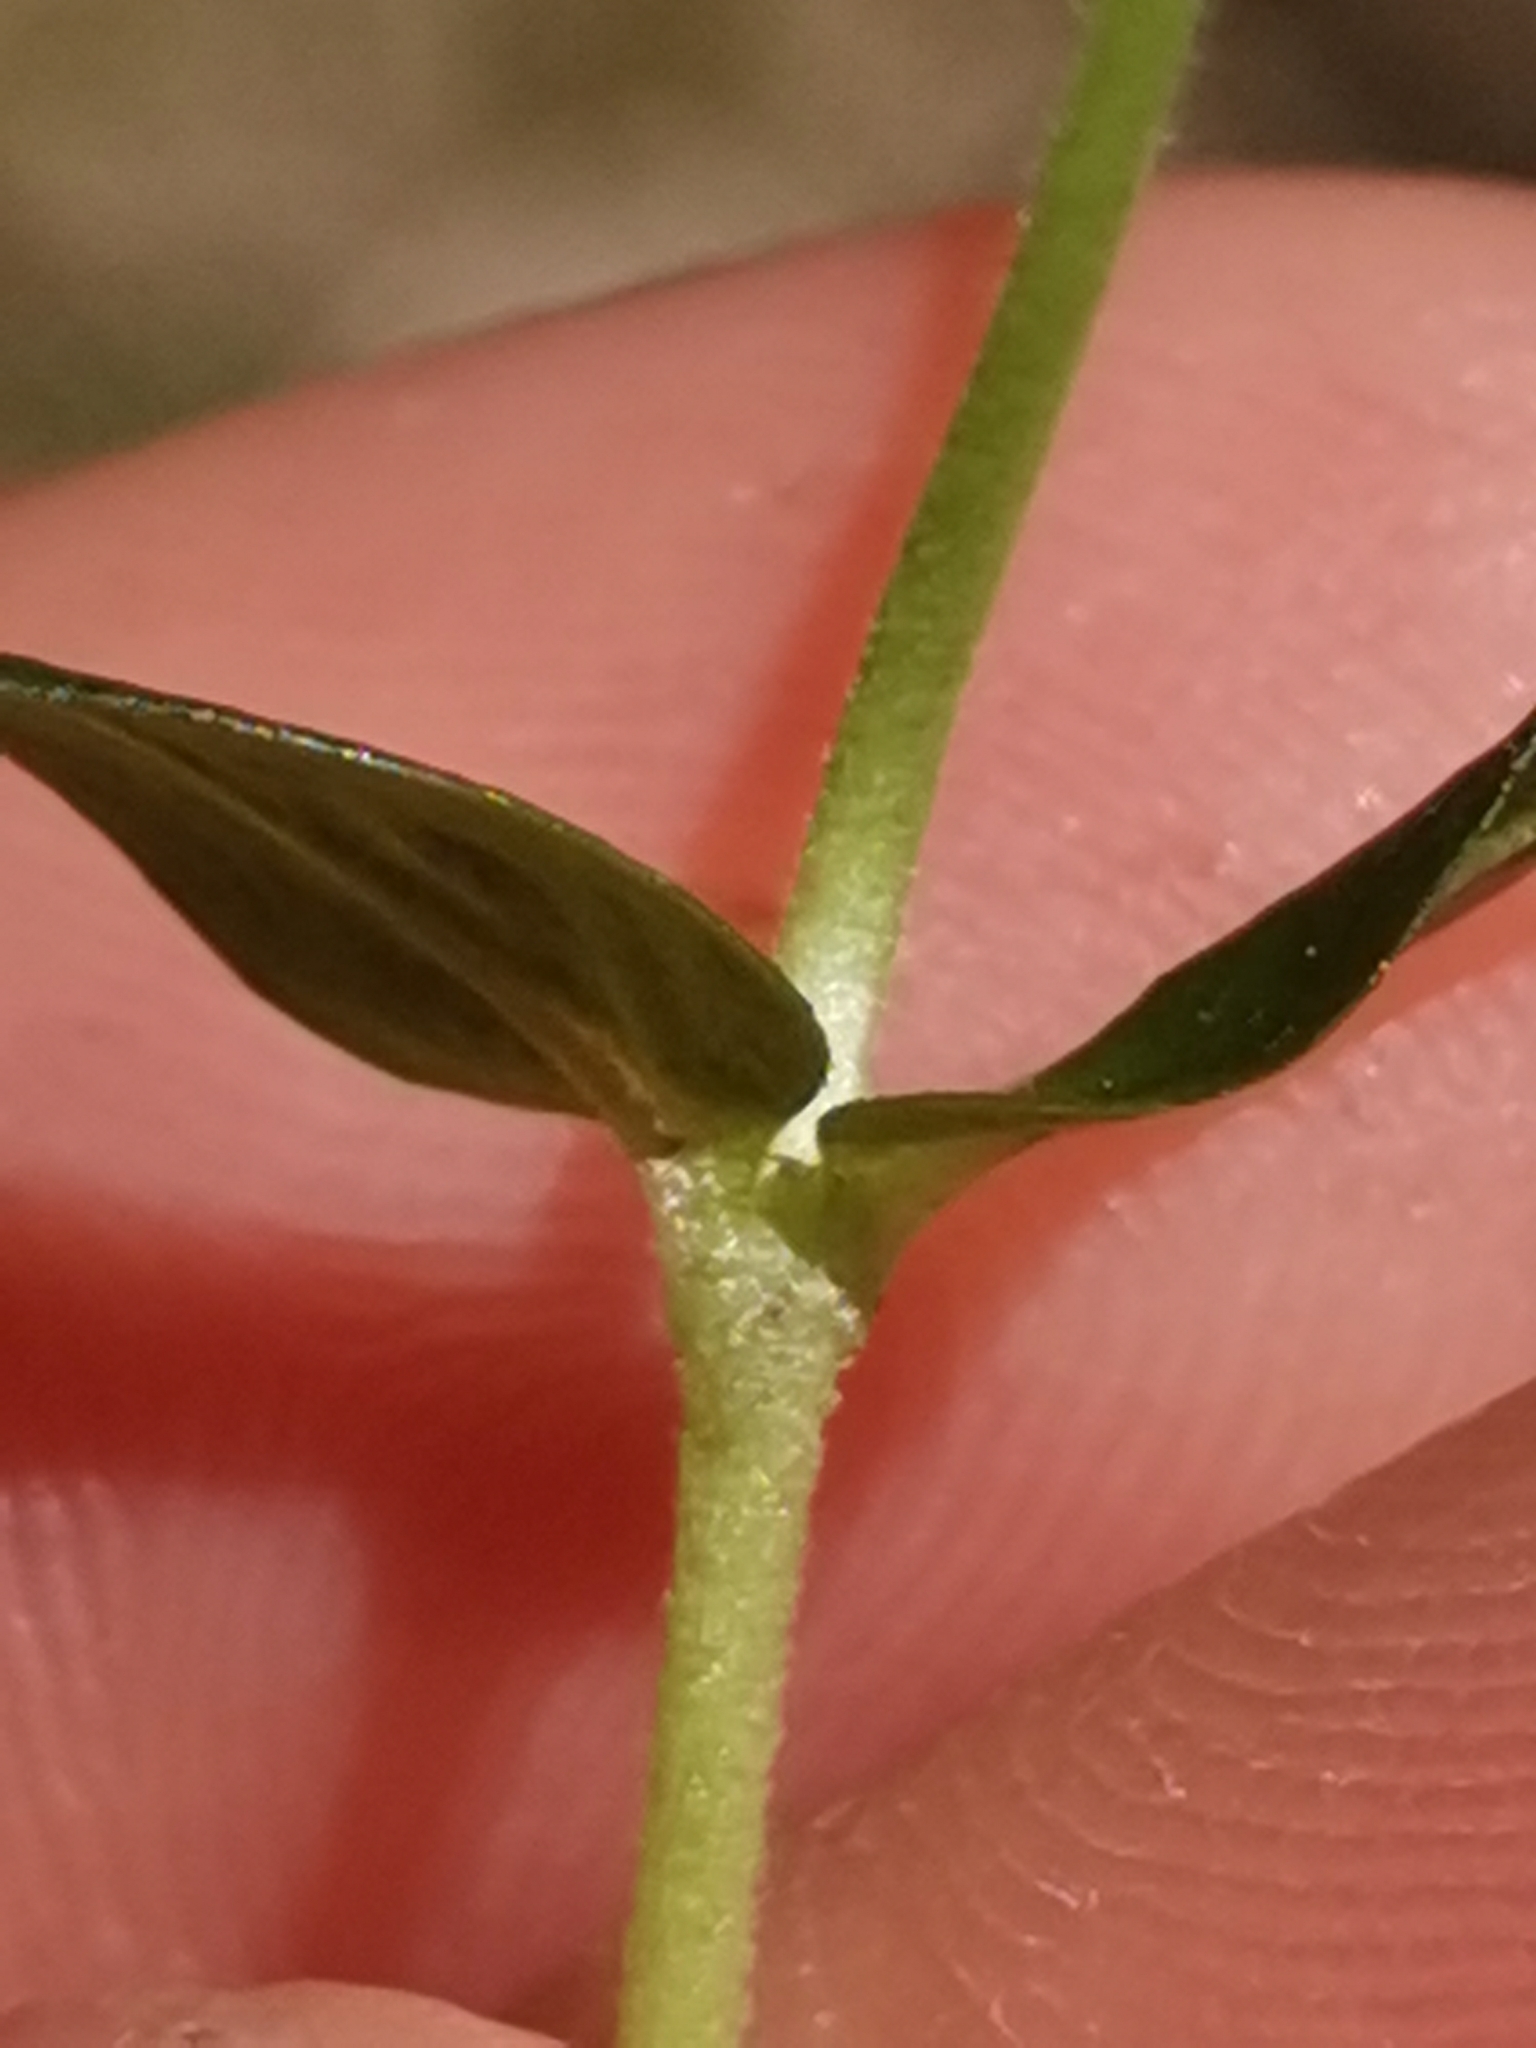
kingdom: Plantae
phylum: Tracheophyta
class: Magnoliopsida
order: Lamiales
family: Plantaginaceae
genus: Veronica
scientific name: Veronica serpyllifolia
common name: Thyme-leaved speedwell
